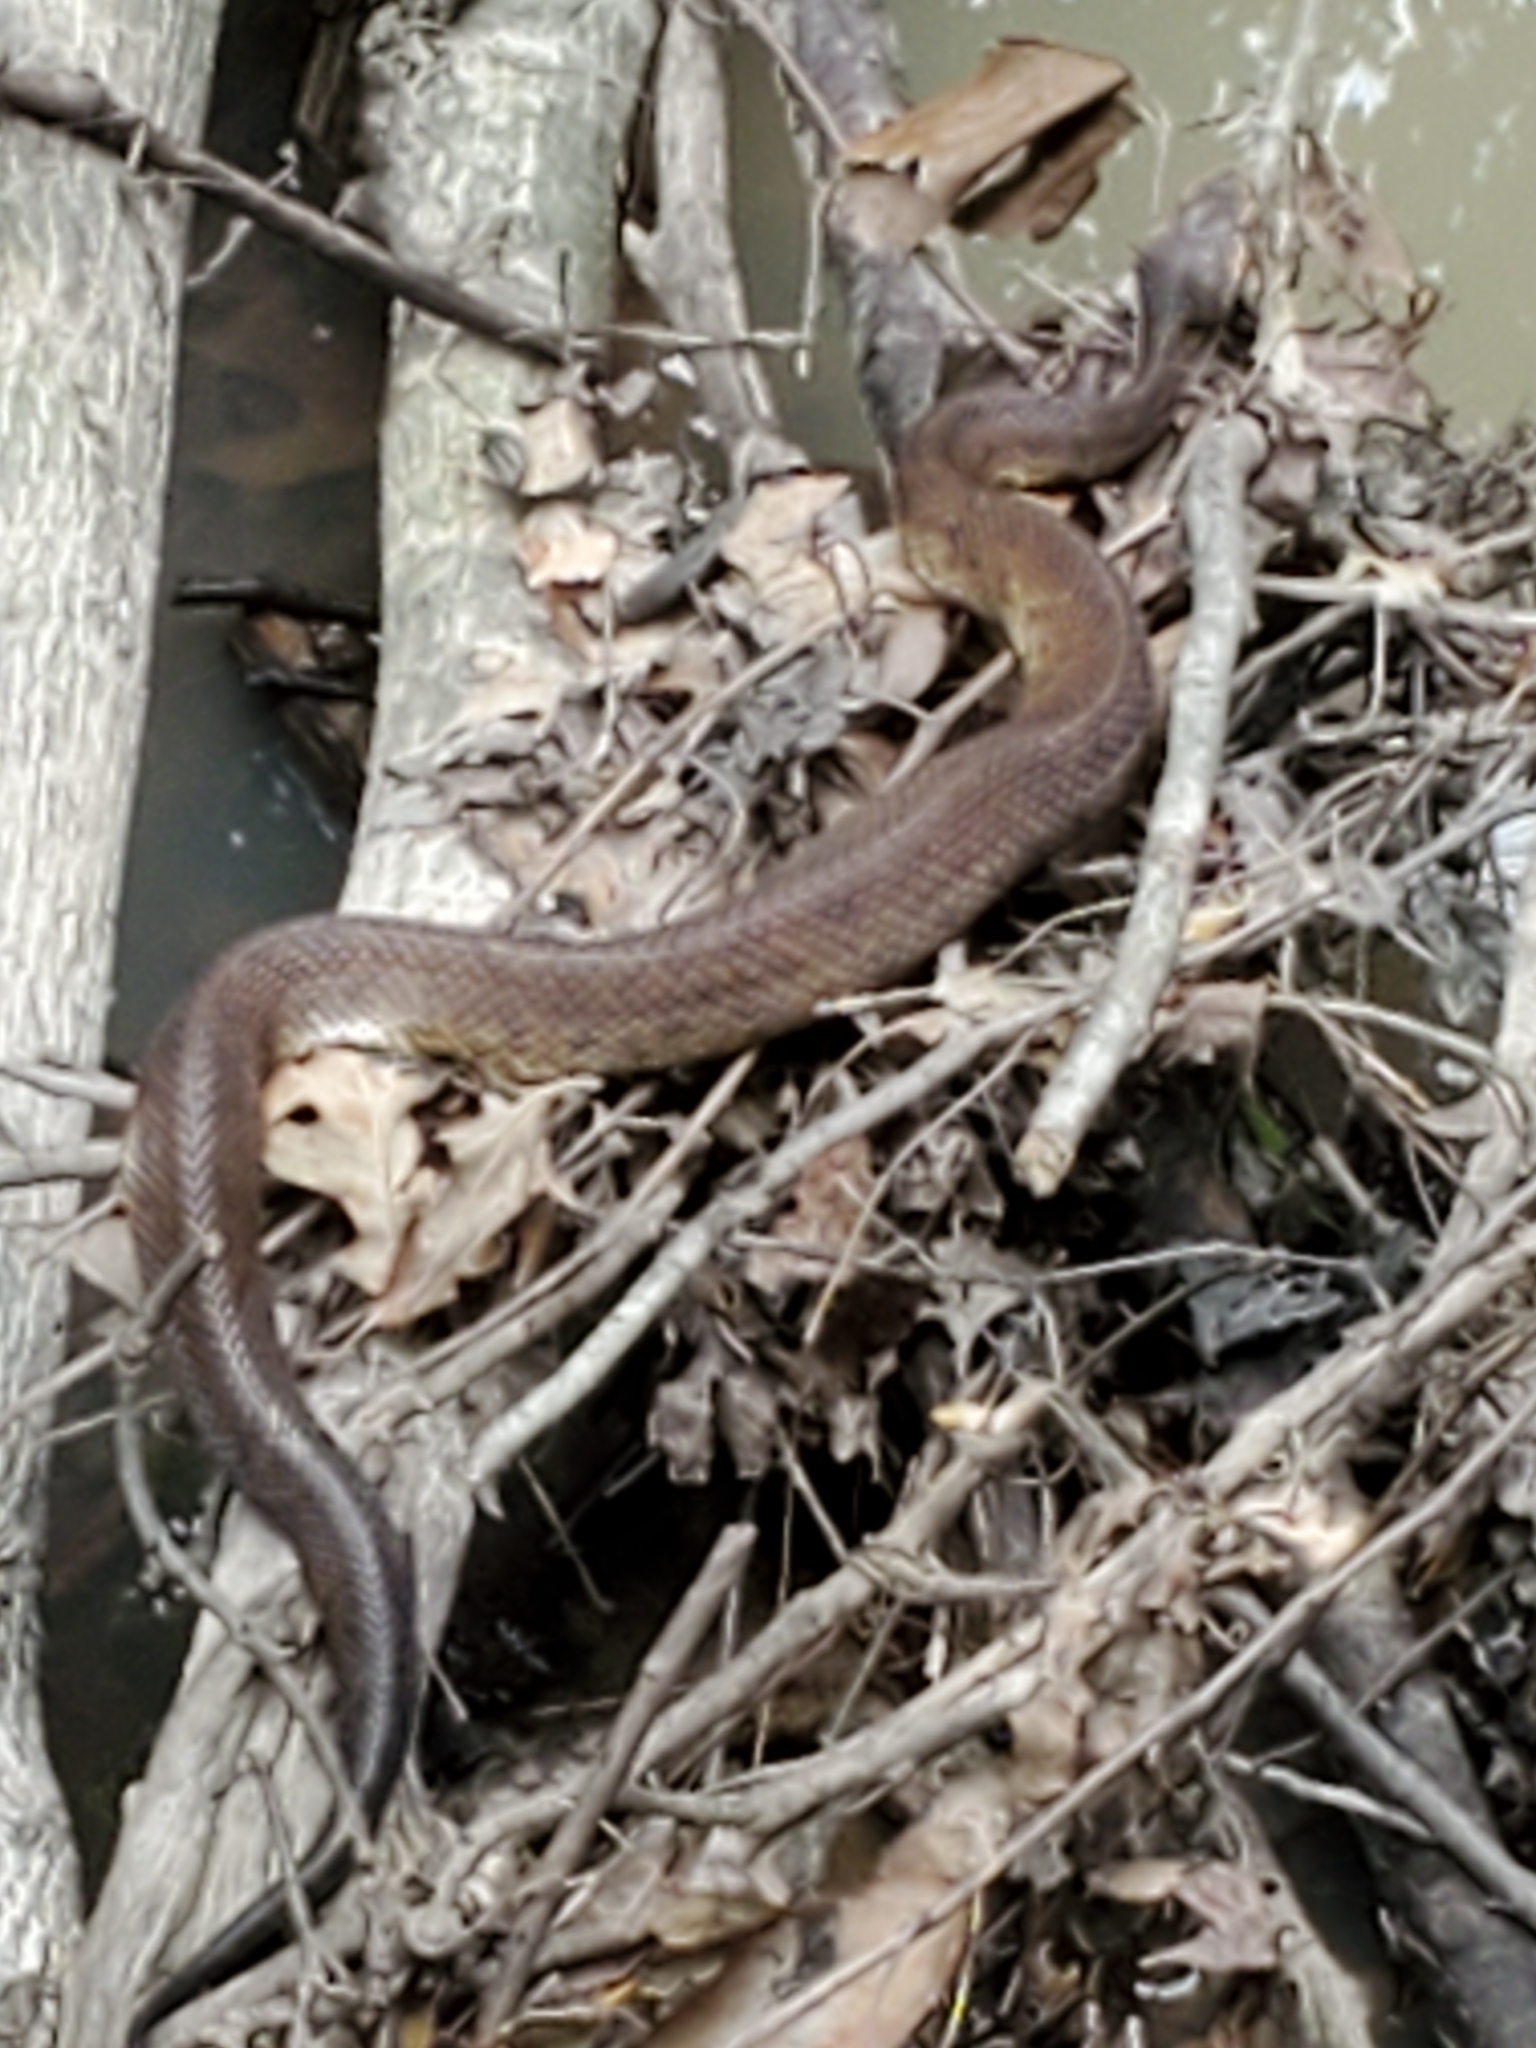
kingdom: Animalia
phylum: Chordata
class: Squamata
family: Viperidae
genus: Agkistrodon
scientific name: Agkistrodon piscivorus
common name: Cottonmouth
